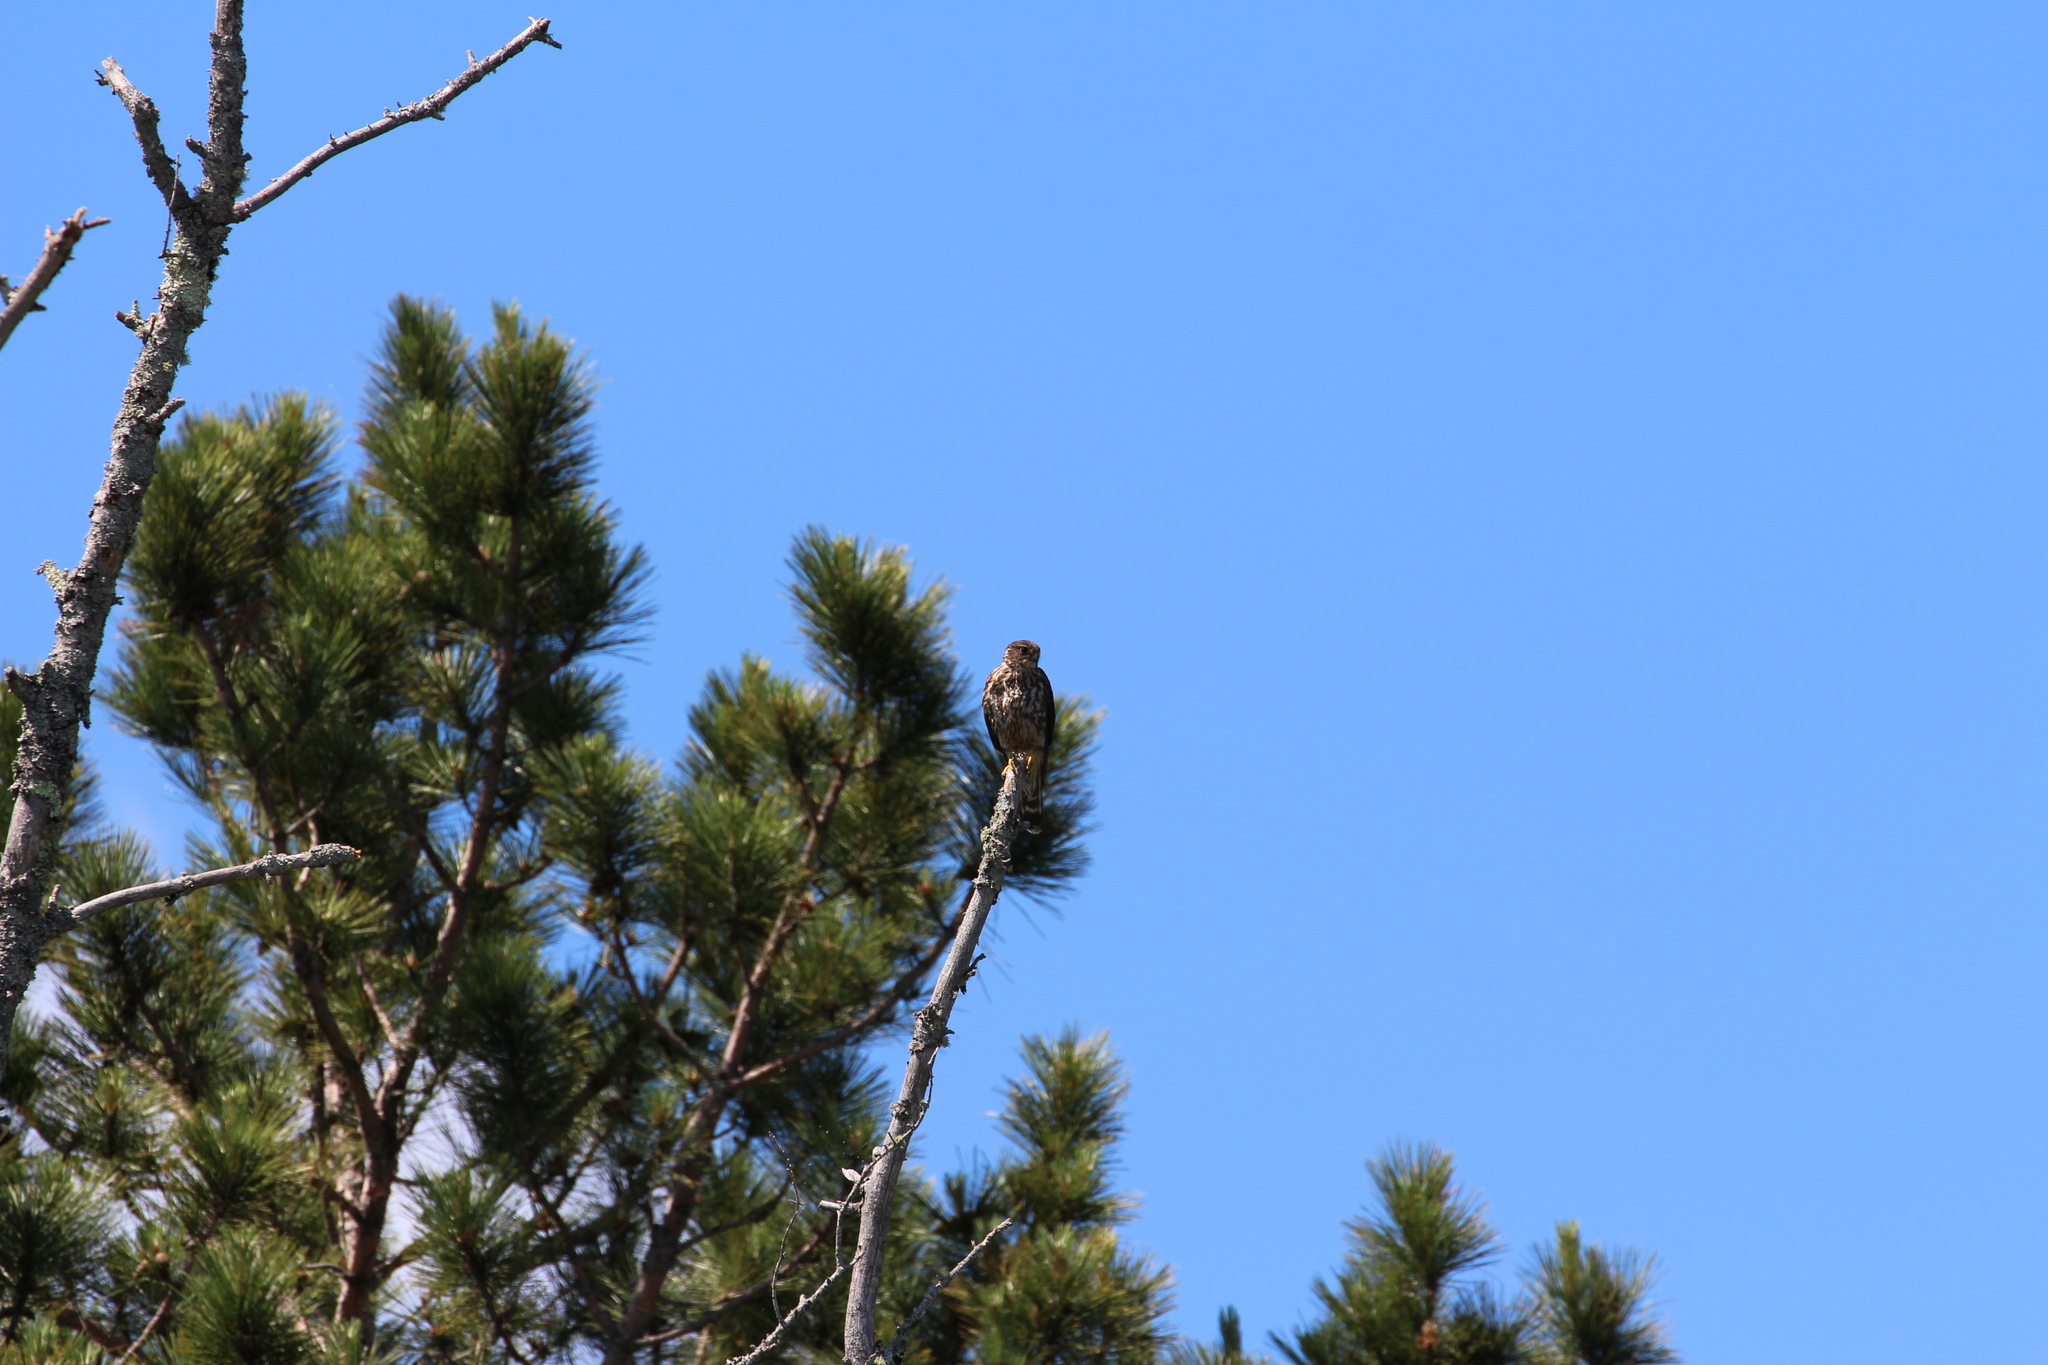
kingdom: Animalia
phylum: Chordata
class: Aves
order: Accipitriformes
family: Pandionidae
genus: Pandion
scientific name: Pandion haliaetus
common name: Osprey
